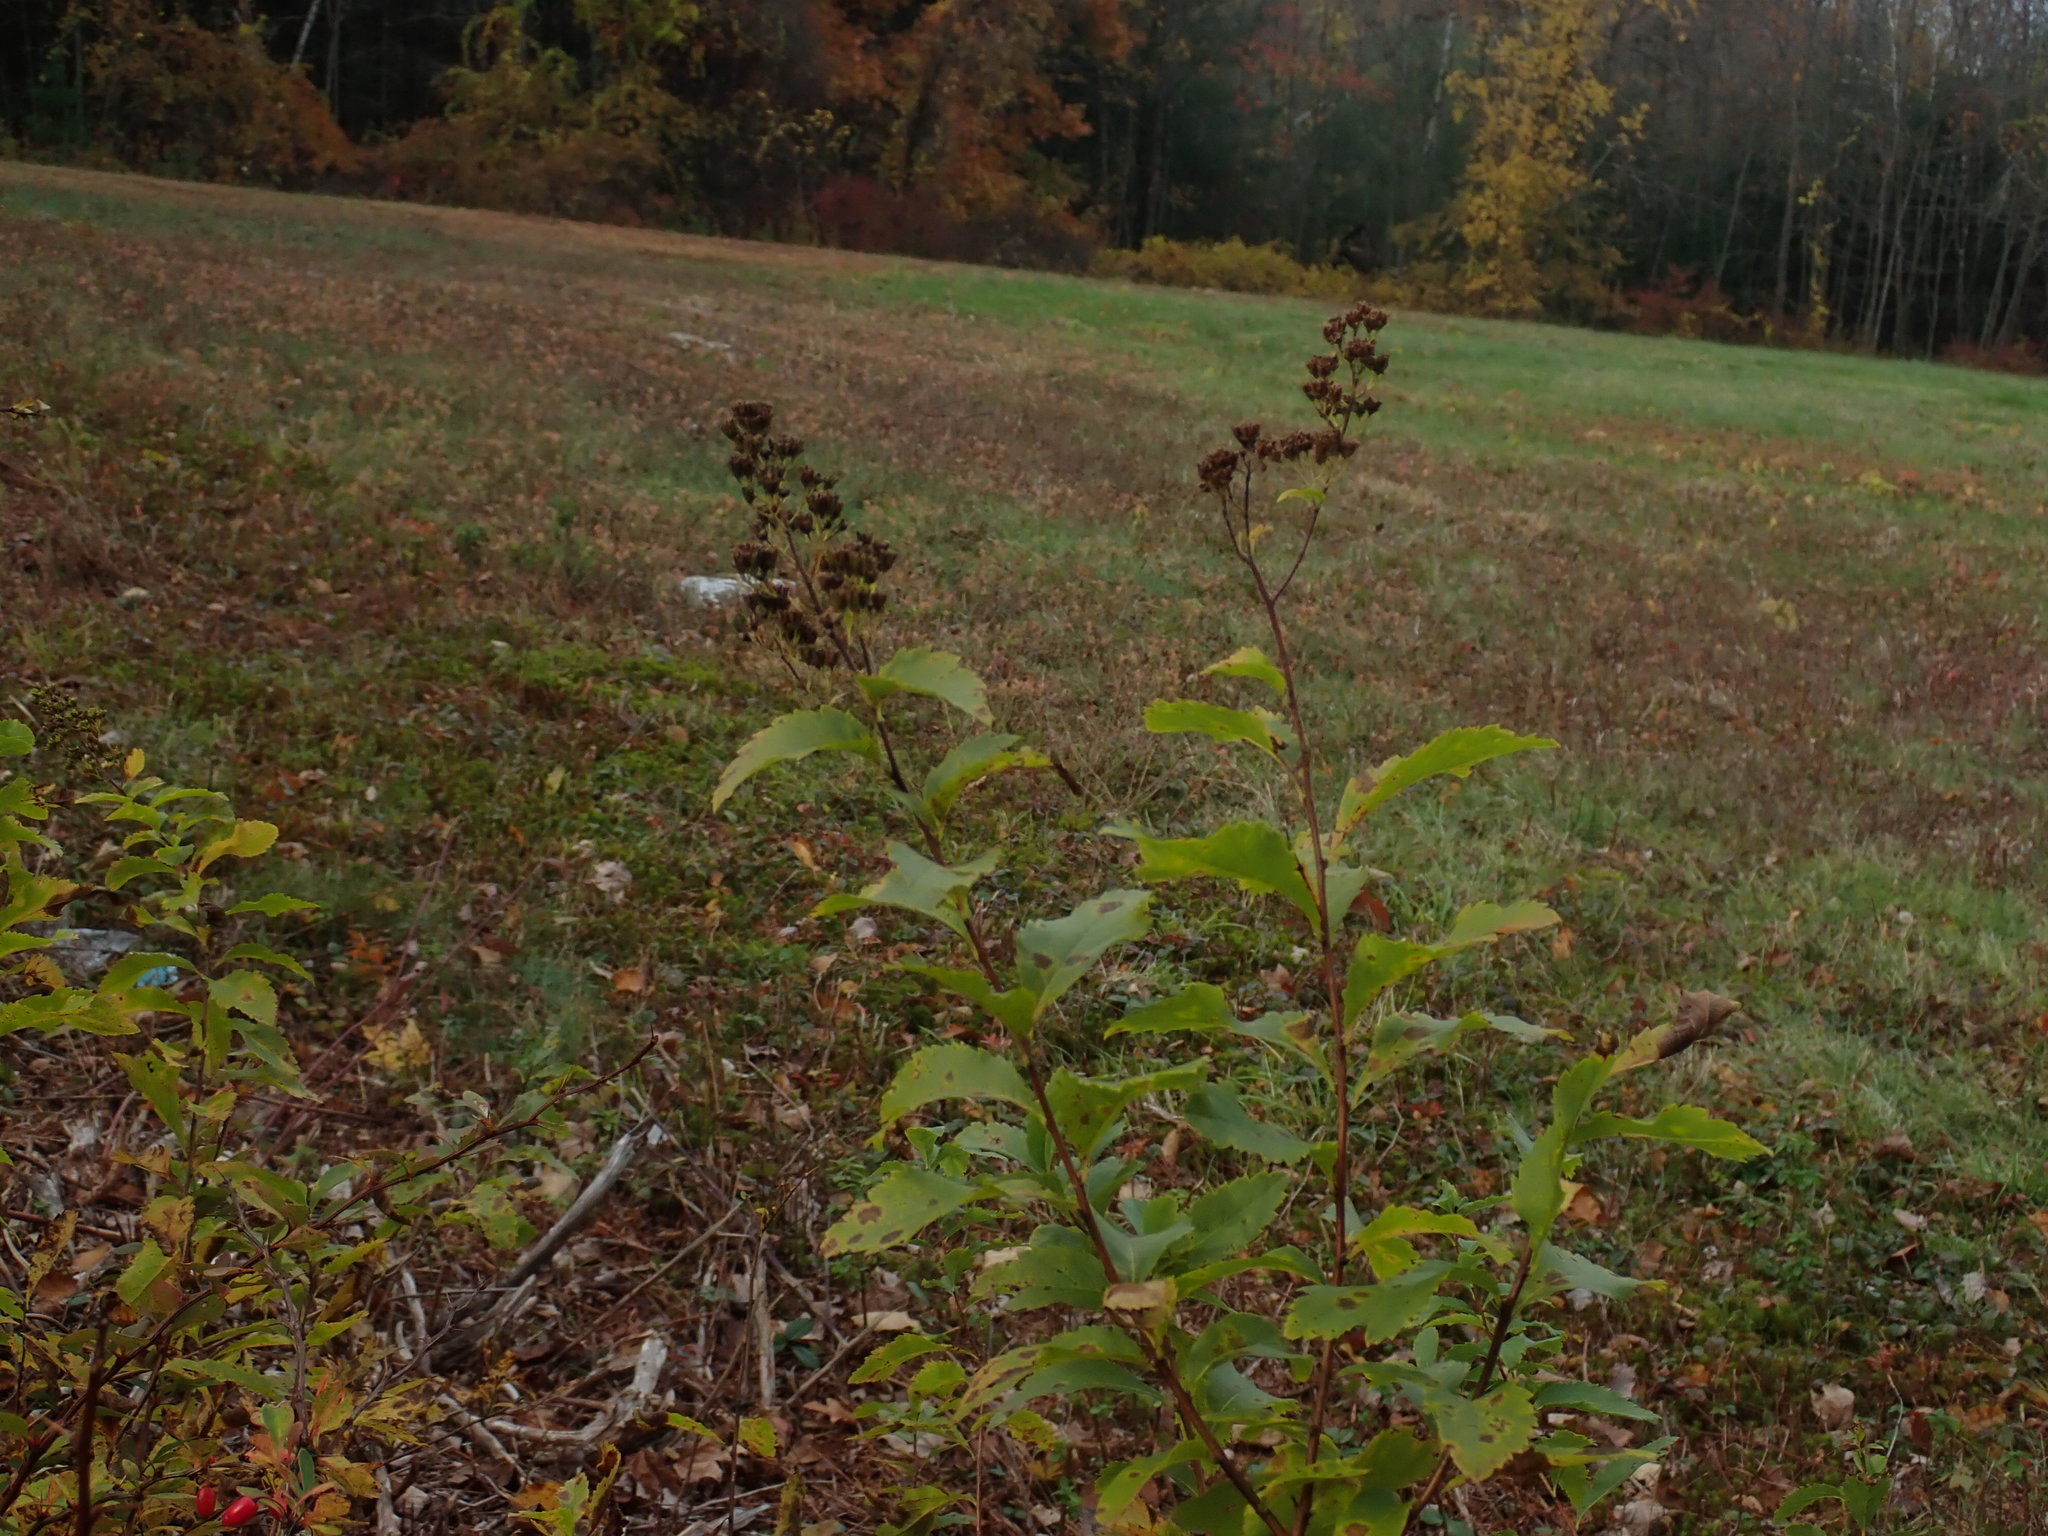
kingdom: Plantae
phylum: Tracheophyta
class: Magnoliopsida
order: Rosales
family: Rosaceae
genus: Spiraea
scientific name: Spiraea alba
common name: Pale bridewort
